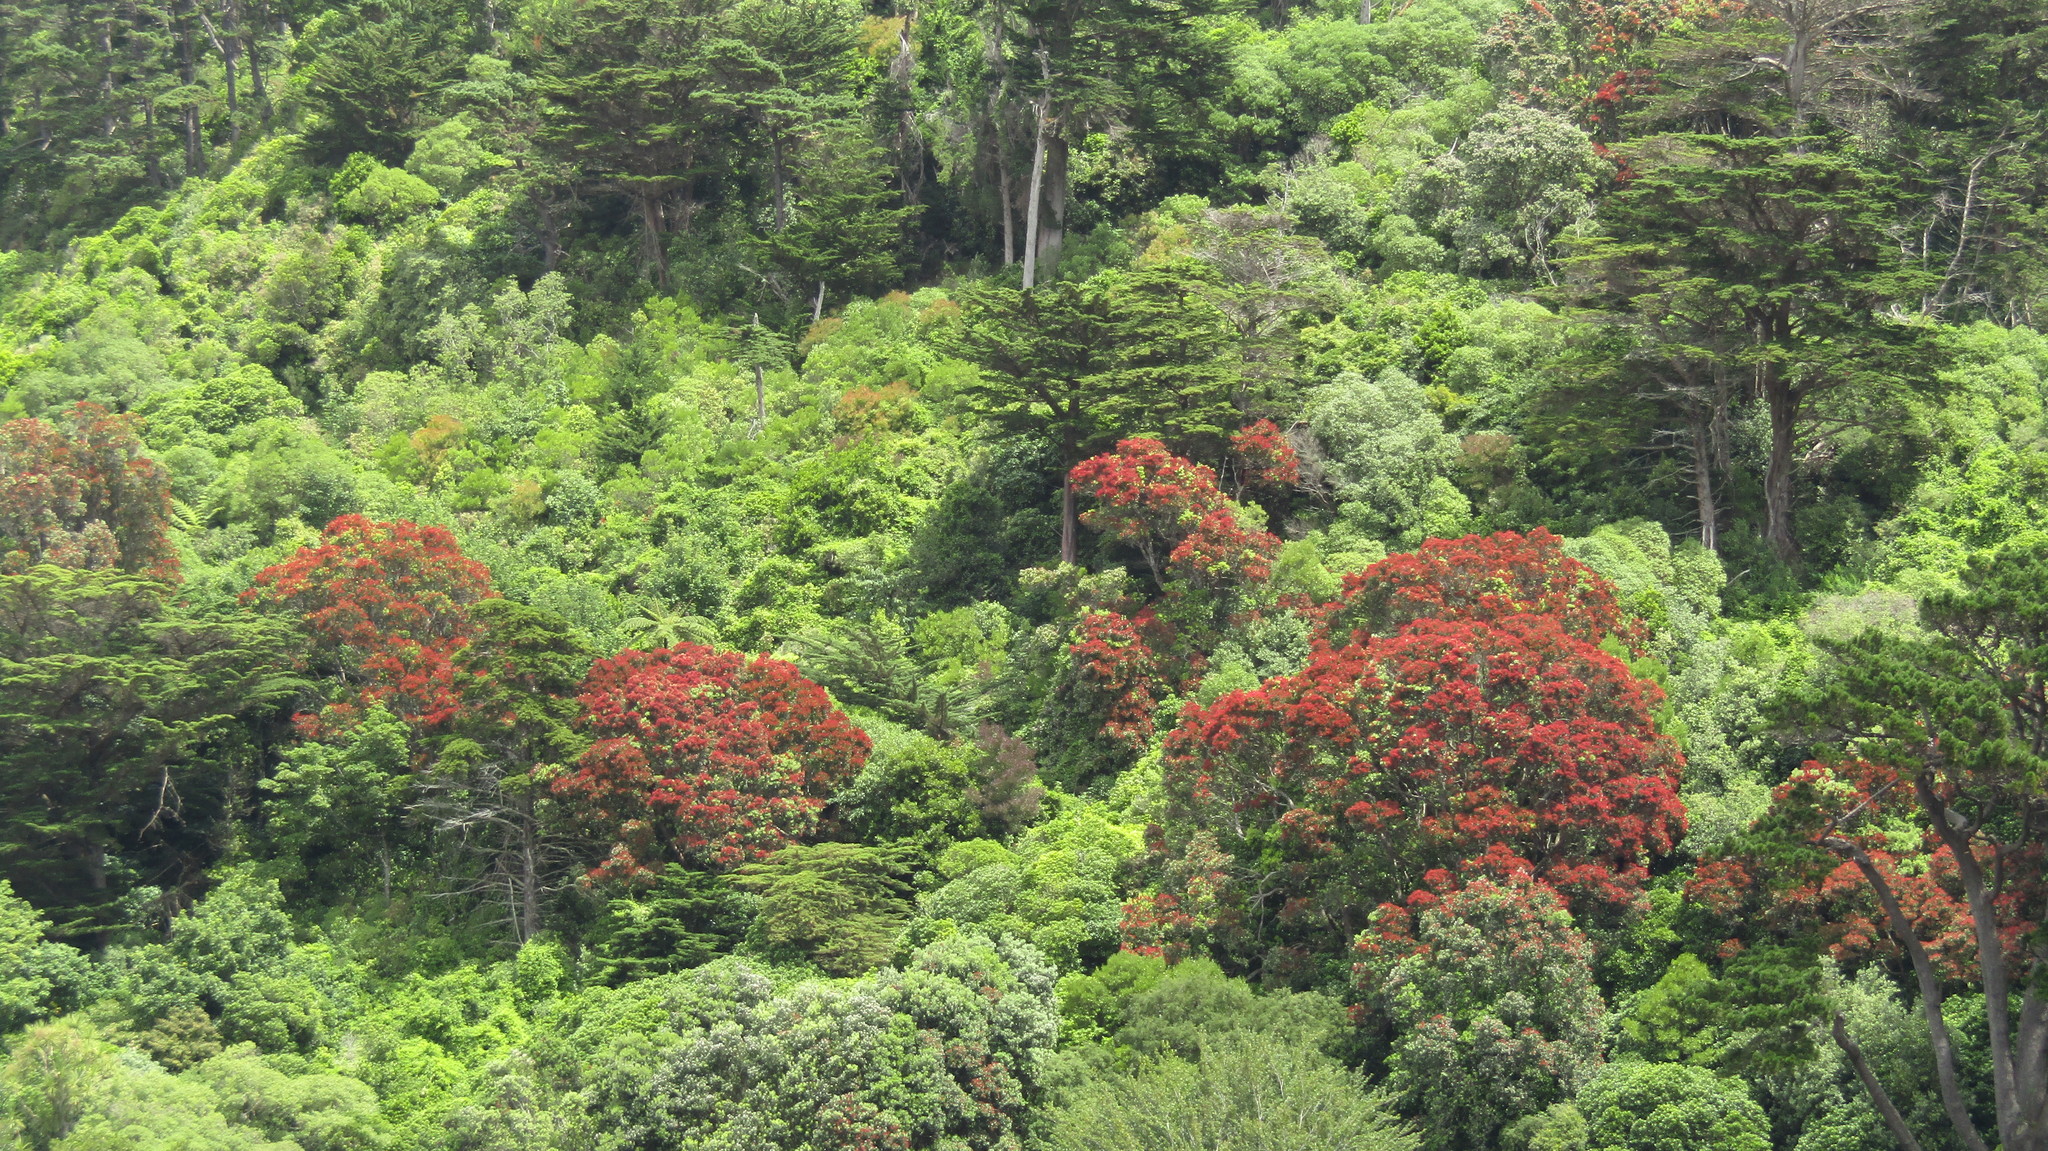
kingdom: Plantae
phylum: Tracheophyta
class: Pinopsida
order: Pinales
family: Cupressaceae
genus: Cupressus
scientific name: Cupressus macrocarpa
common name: Monterey cypress
